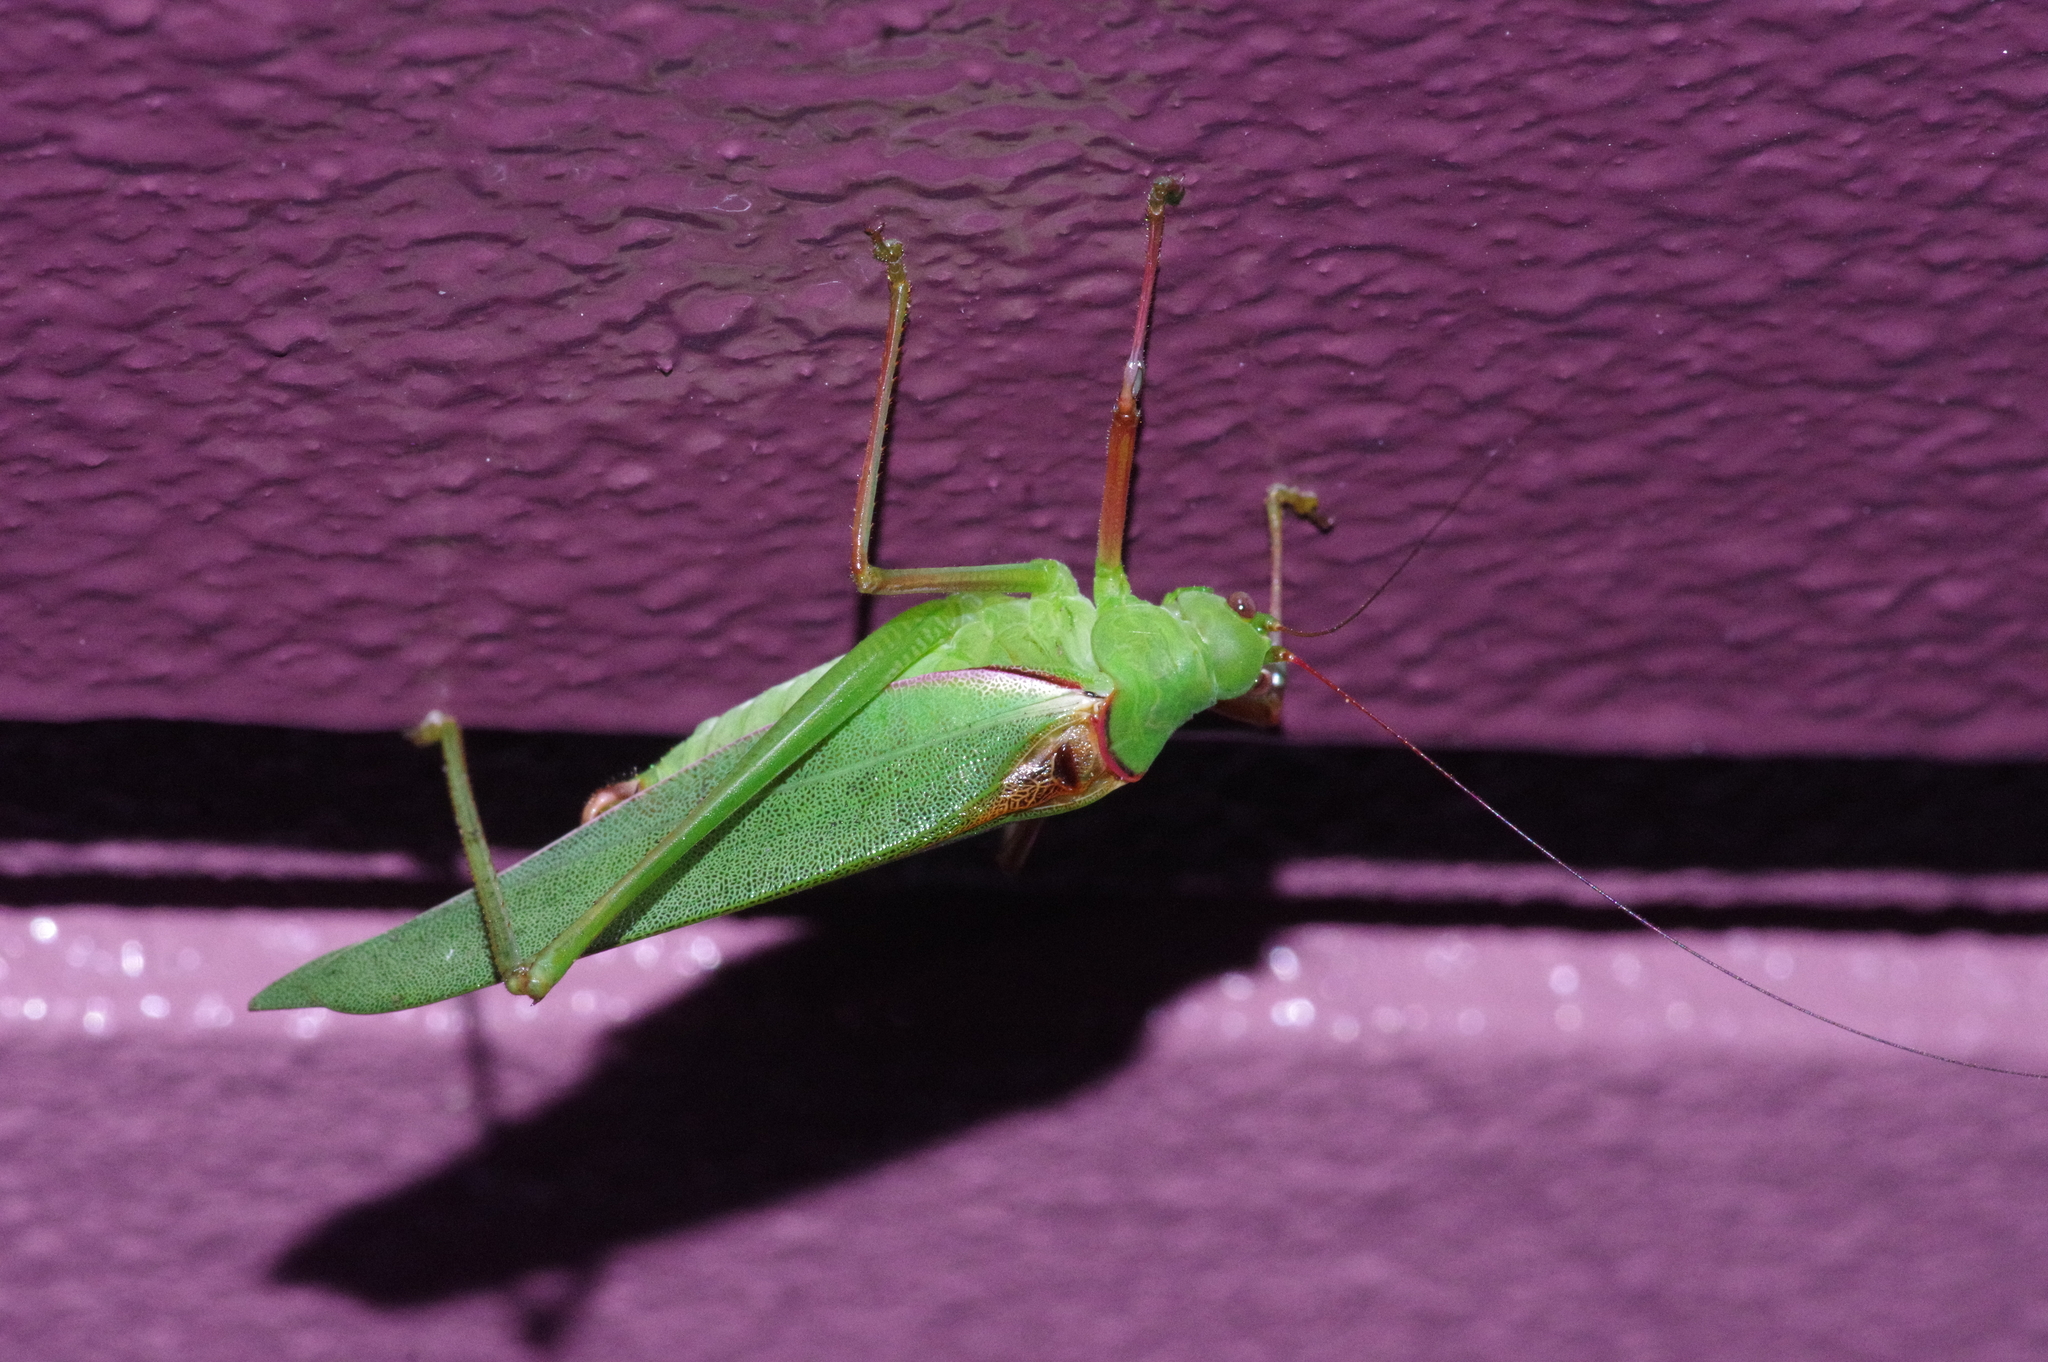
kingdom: Animalia
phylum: Arthropoda
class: Insecta
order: Orthoptera
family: Tettigoniidae
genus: Psyrana
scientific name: Psyrana ryukyuensis
